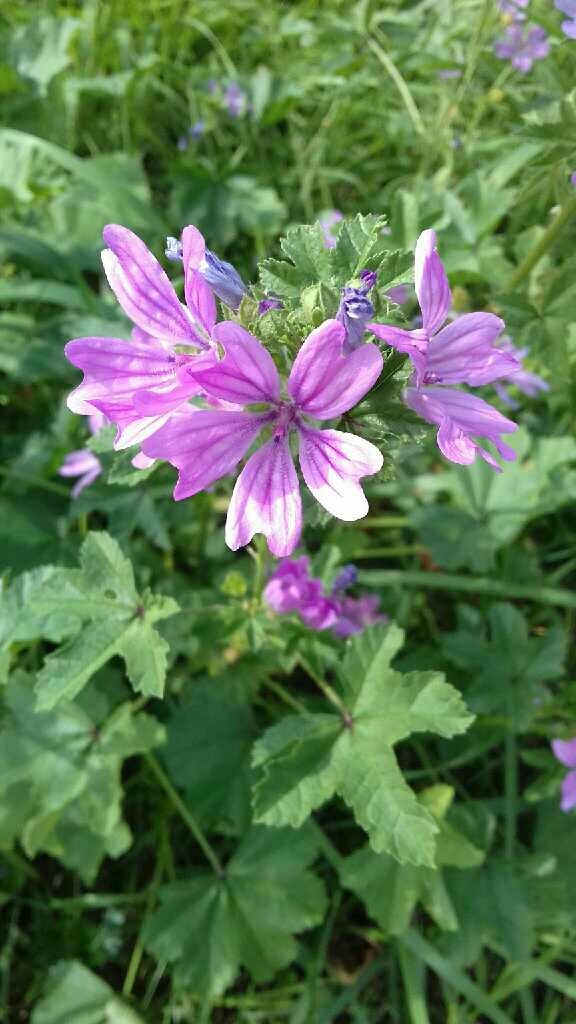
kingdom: Plantae
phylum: Tracheophyta
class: Magnoliopsida
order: Malvales
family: Malvaceae
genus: Malva
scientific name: Malva sylvestris
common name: Common mallow
